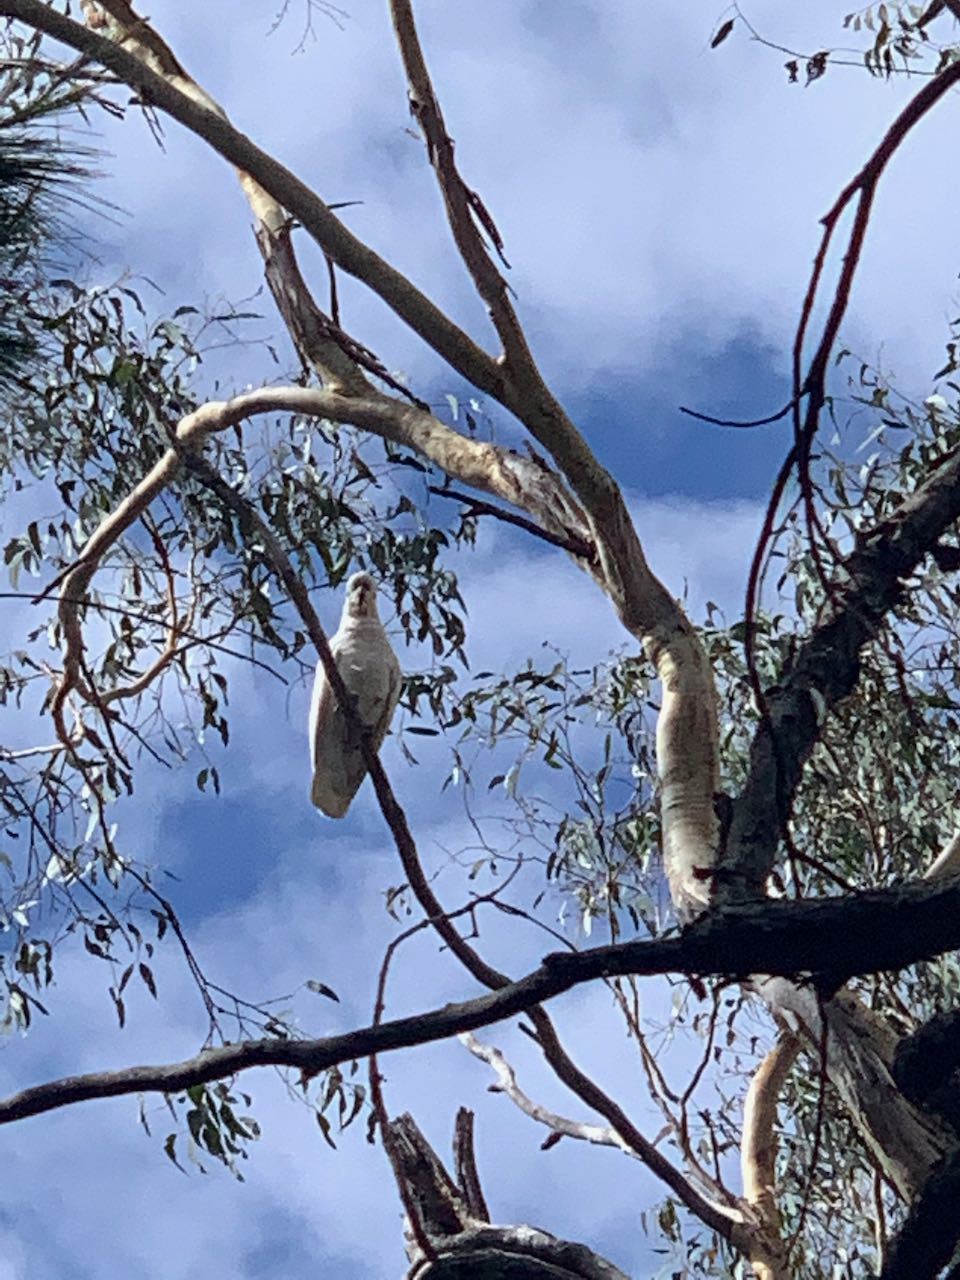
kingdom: Animalia
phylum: Chordata
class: Aves
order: Psittaciformes
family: Psittacidae
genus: Cacatua
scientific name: Cacatua galerita
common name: Sulphur-crested cockatoo
